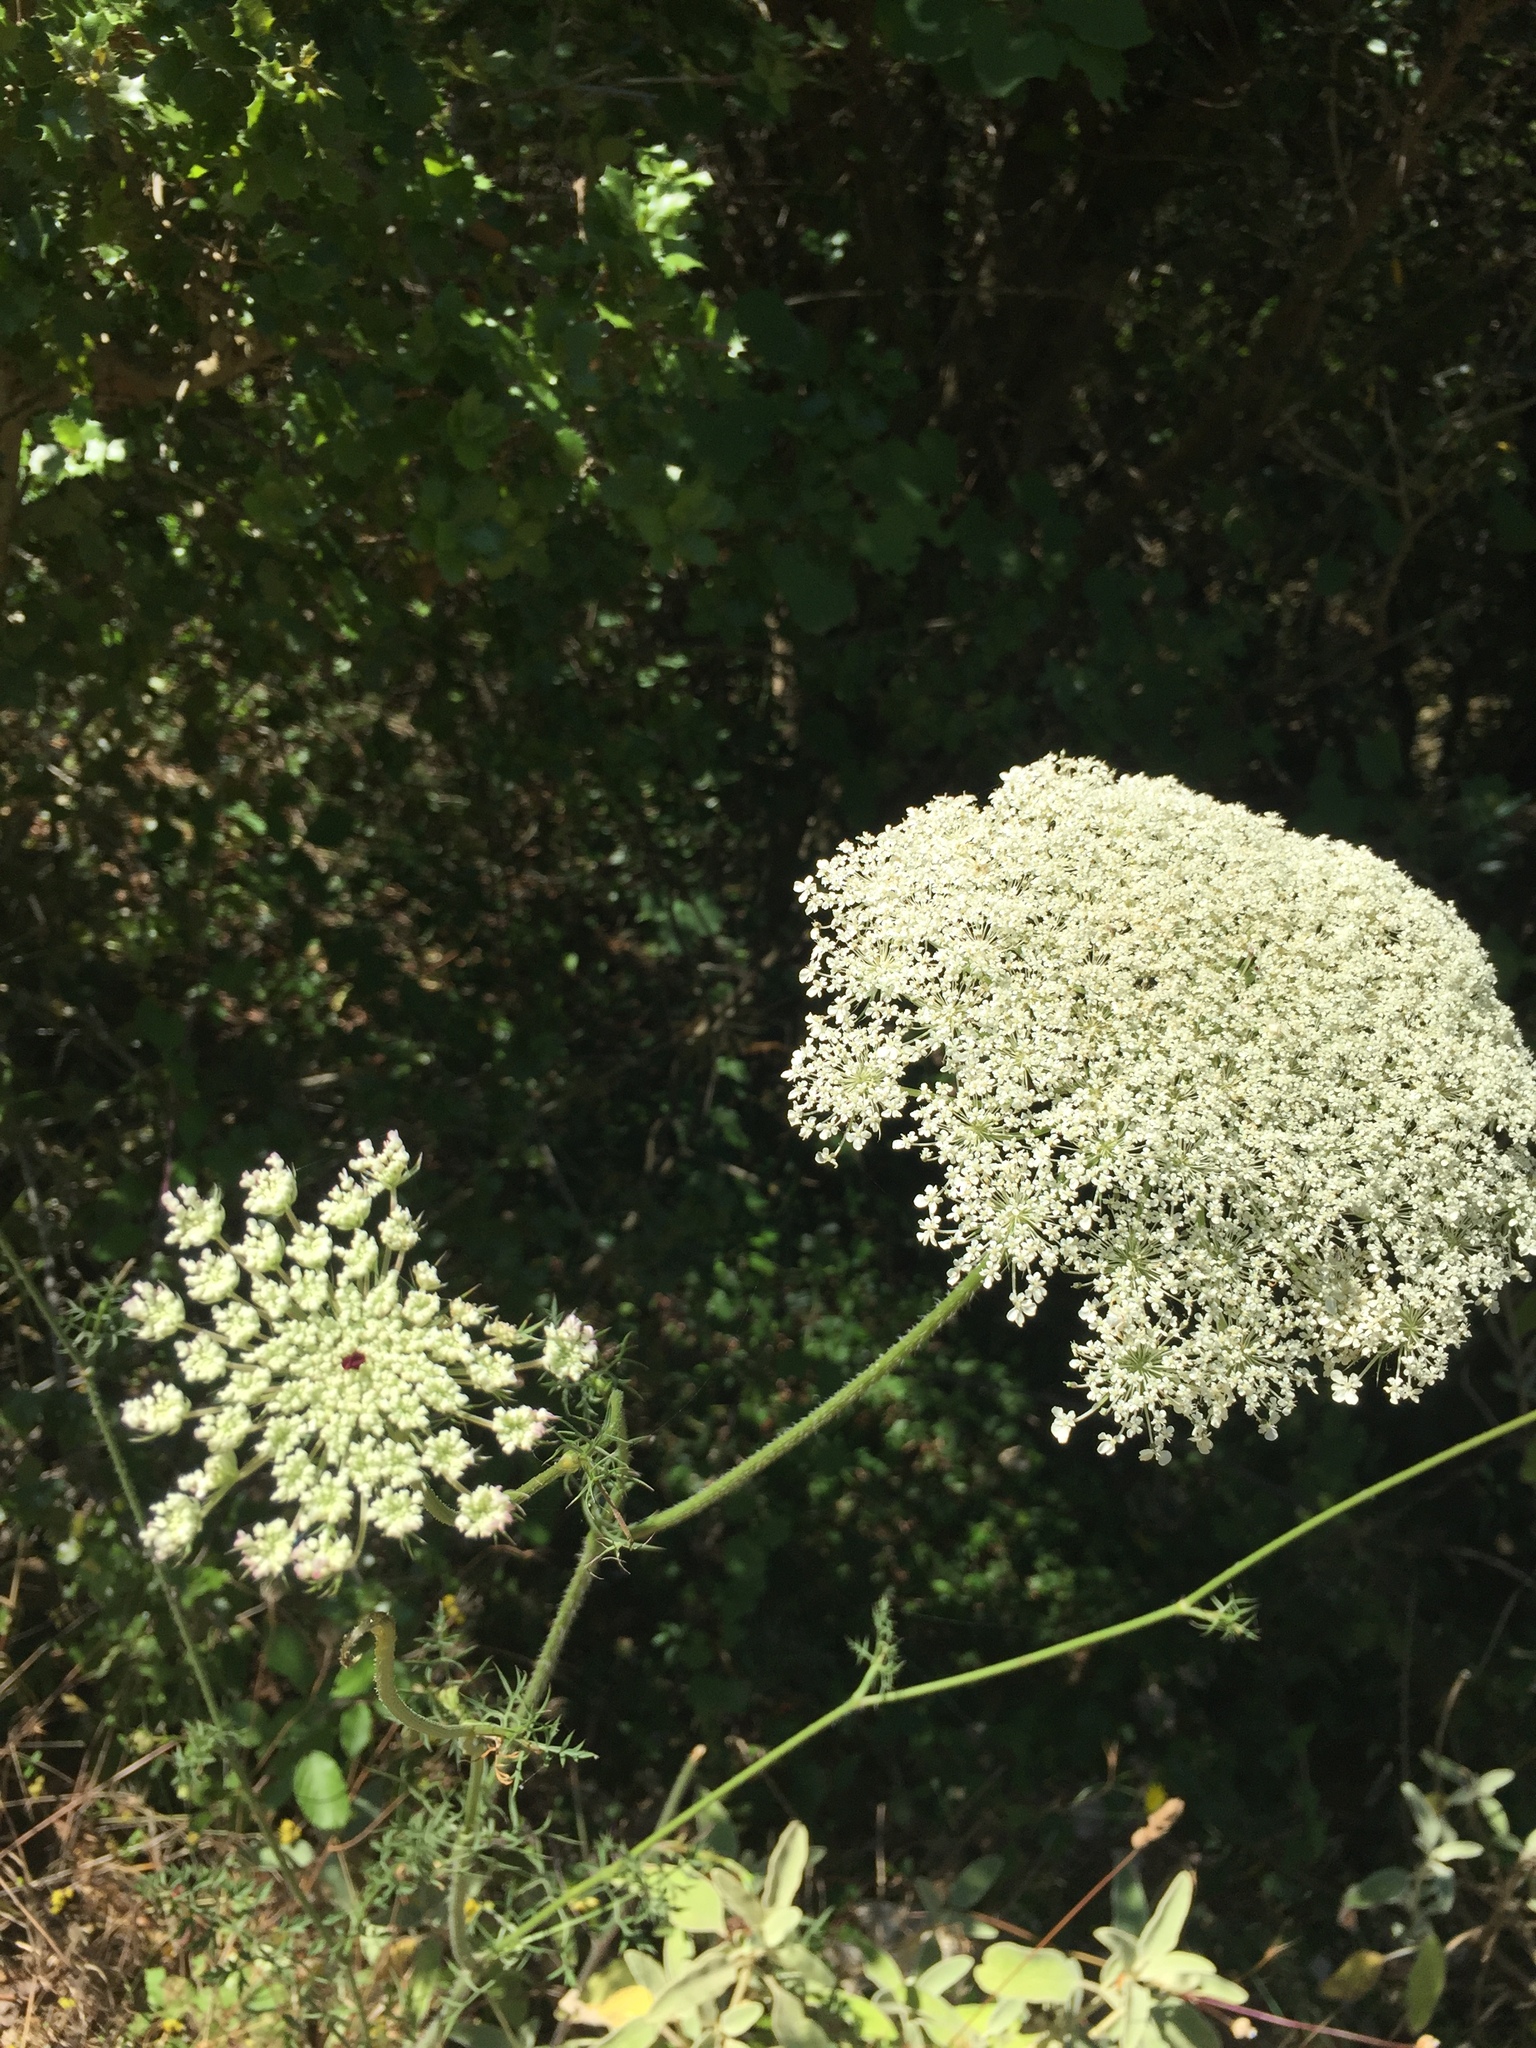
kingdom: Plantae
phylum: Tracheophyta
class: Magnoliopsida
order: Apiales
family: Apiaceae
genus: Daucus
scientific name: Daucus carota
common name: Wild carrot
